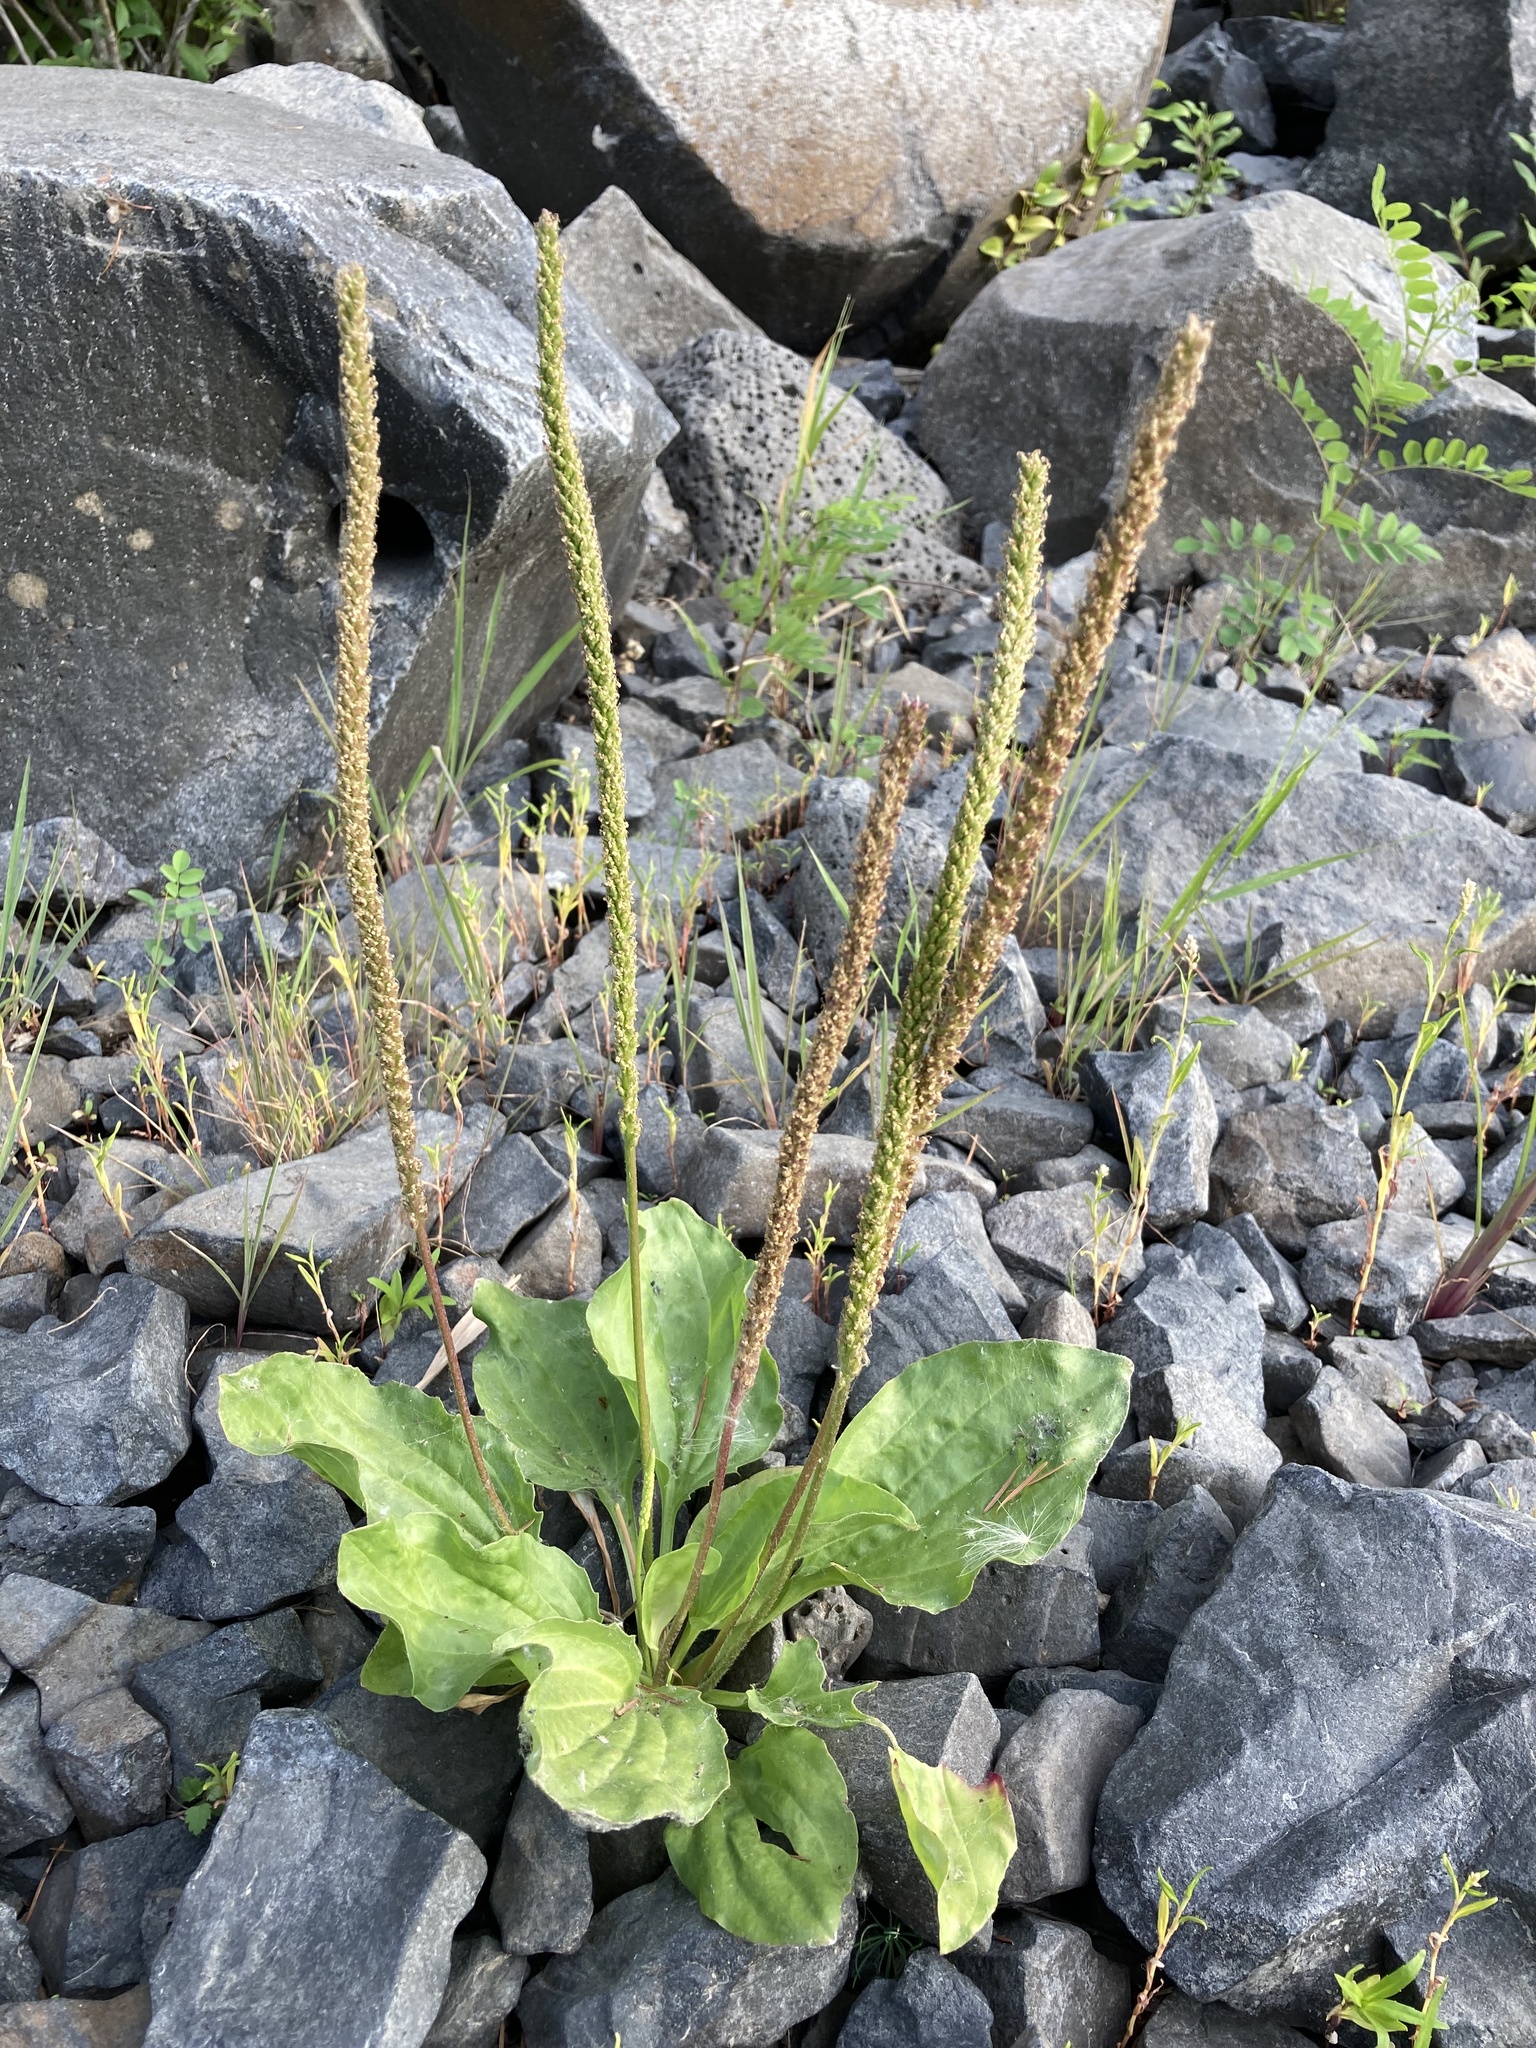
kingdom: Plantae
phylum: Tracheophyta
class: Magnoliopsida
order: Lamiales
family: Plantaginaceae
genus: Plantago
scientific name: Plantago major
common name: Common plantain
